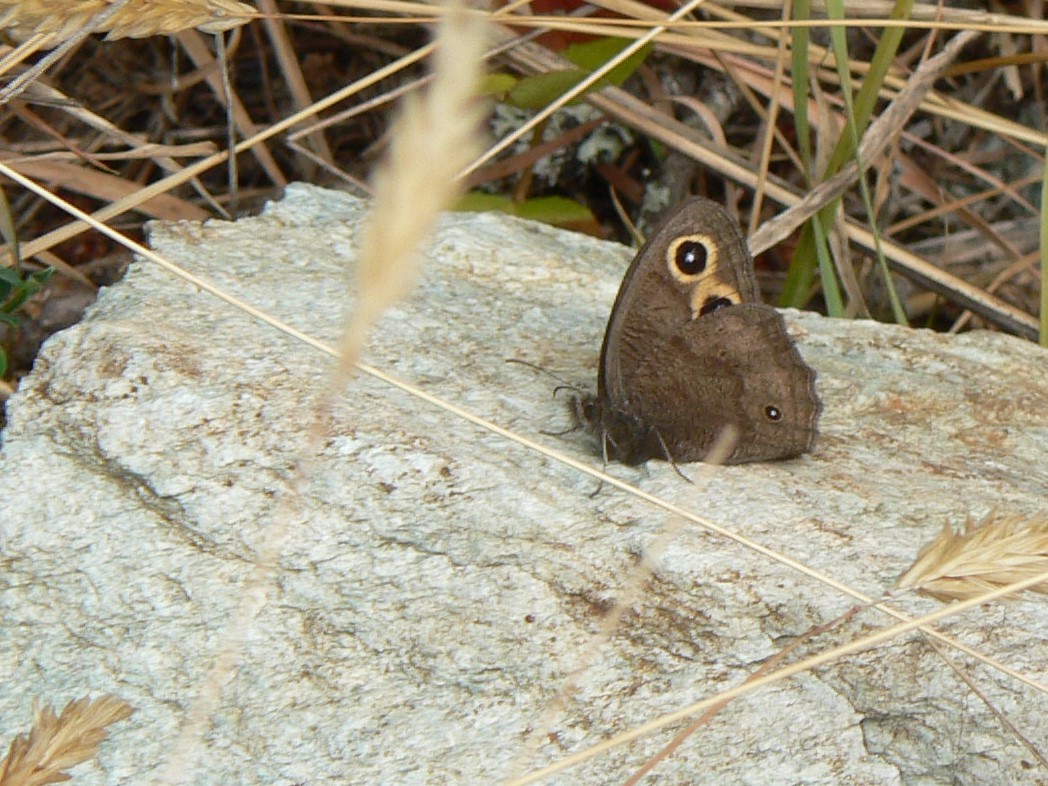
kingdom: Animalia
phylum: Arthropoda
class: Insecta
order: Lepidoptera
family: Nymphalidae
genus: Cercyonis
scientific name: Cercyonis pegala
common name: Common wood-nymph
